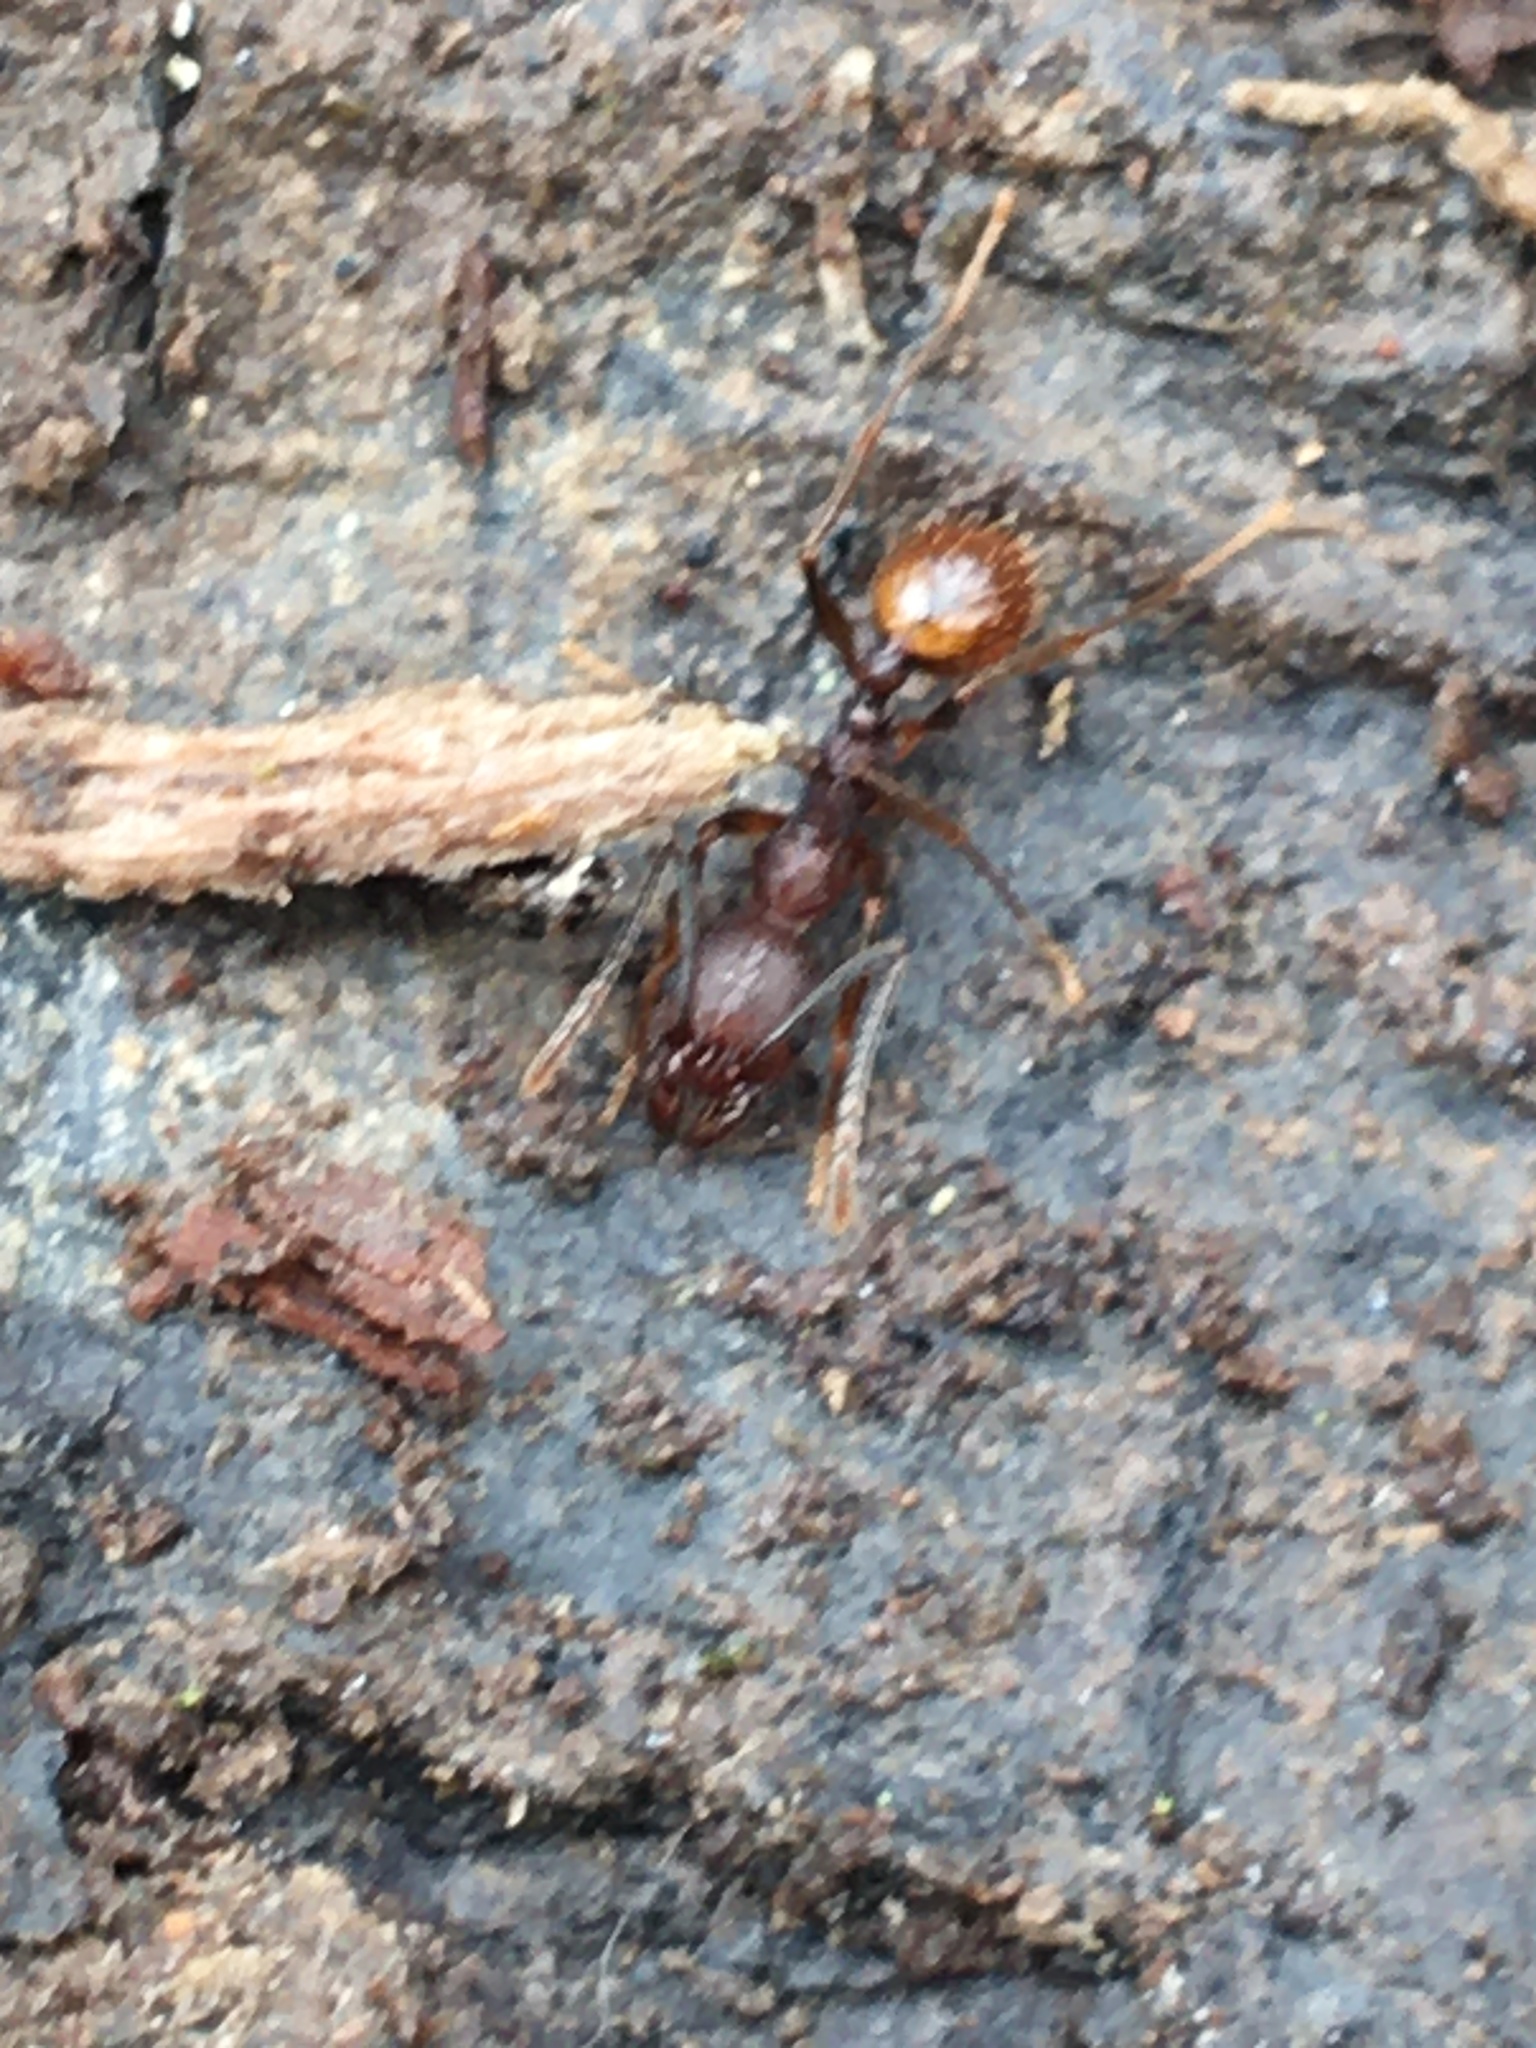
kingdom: Animalia
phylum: Arthropoda
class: Insecta
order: Hymenoptera
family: Formicidae
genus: Aphaenogaster
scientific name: Aphaenogaster fulva
